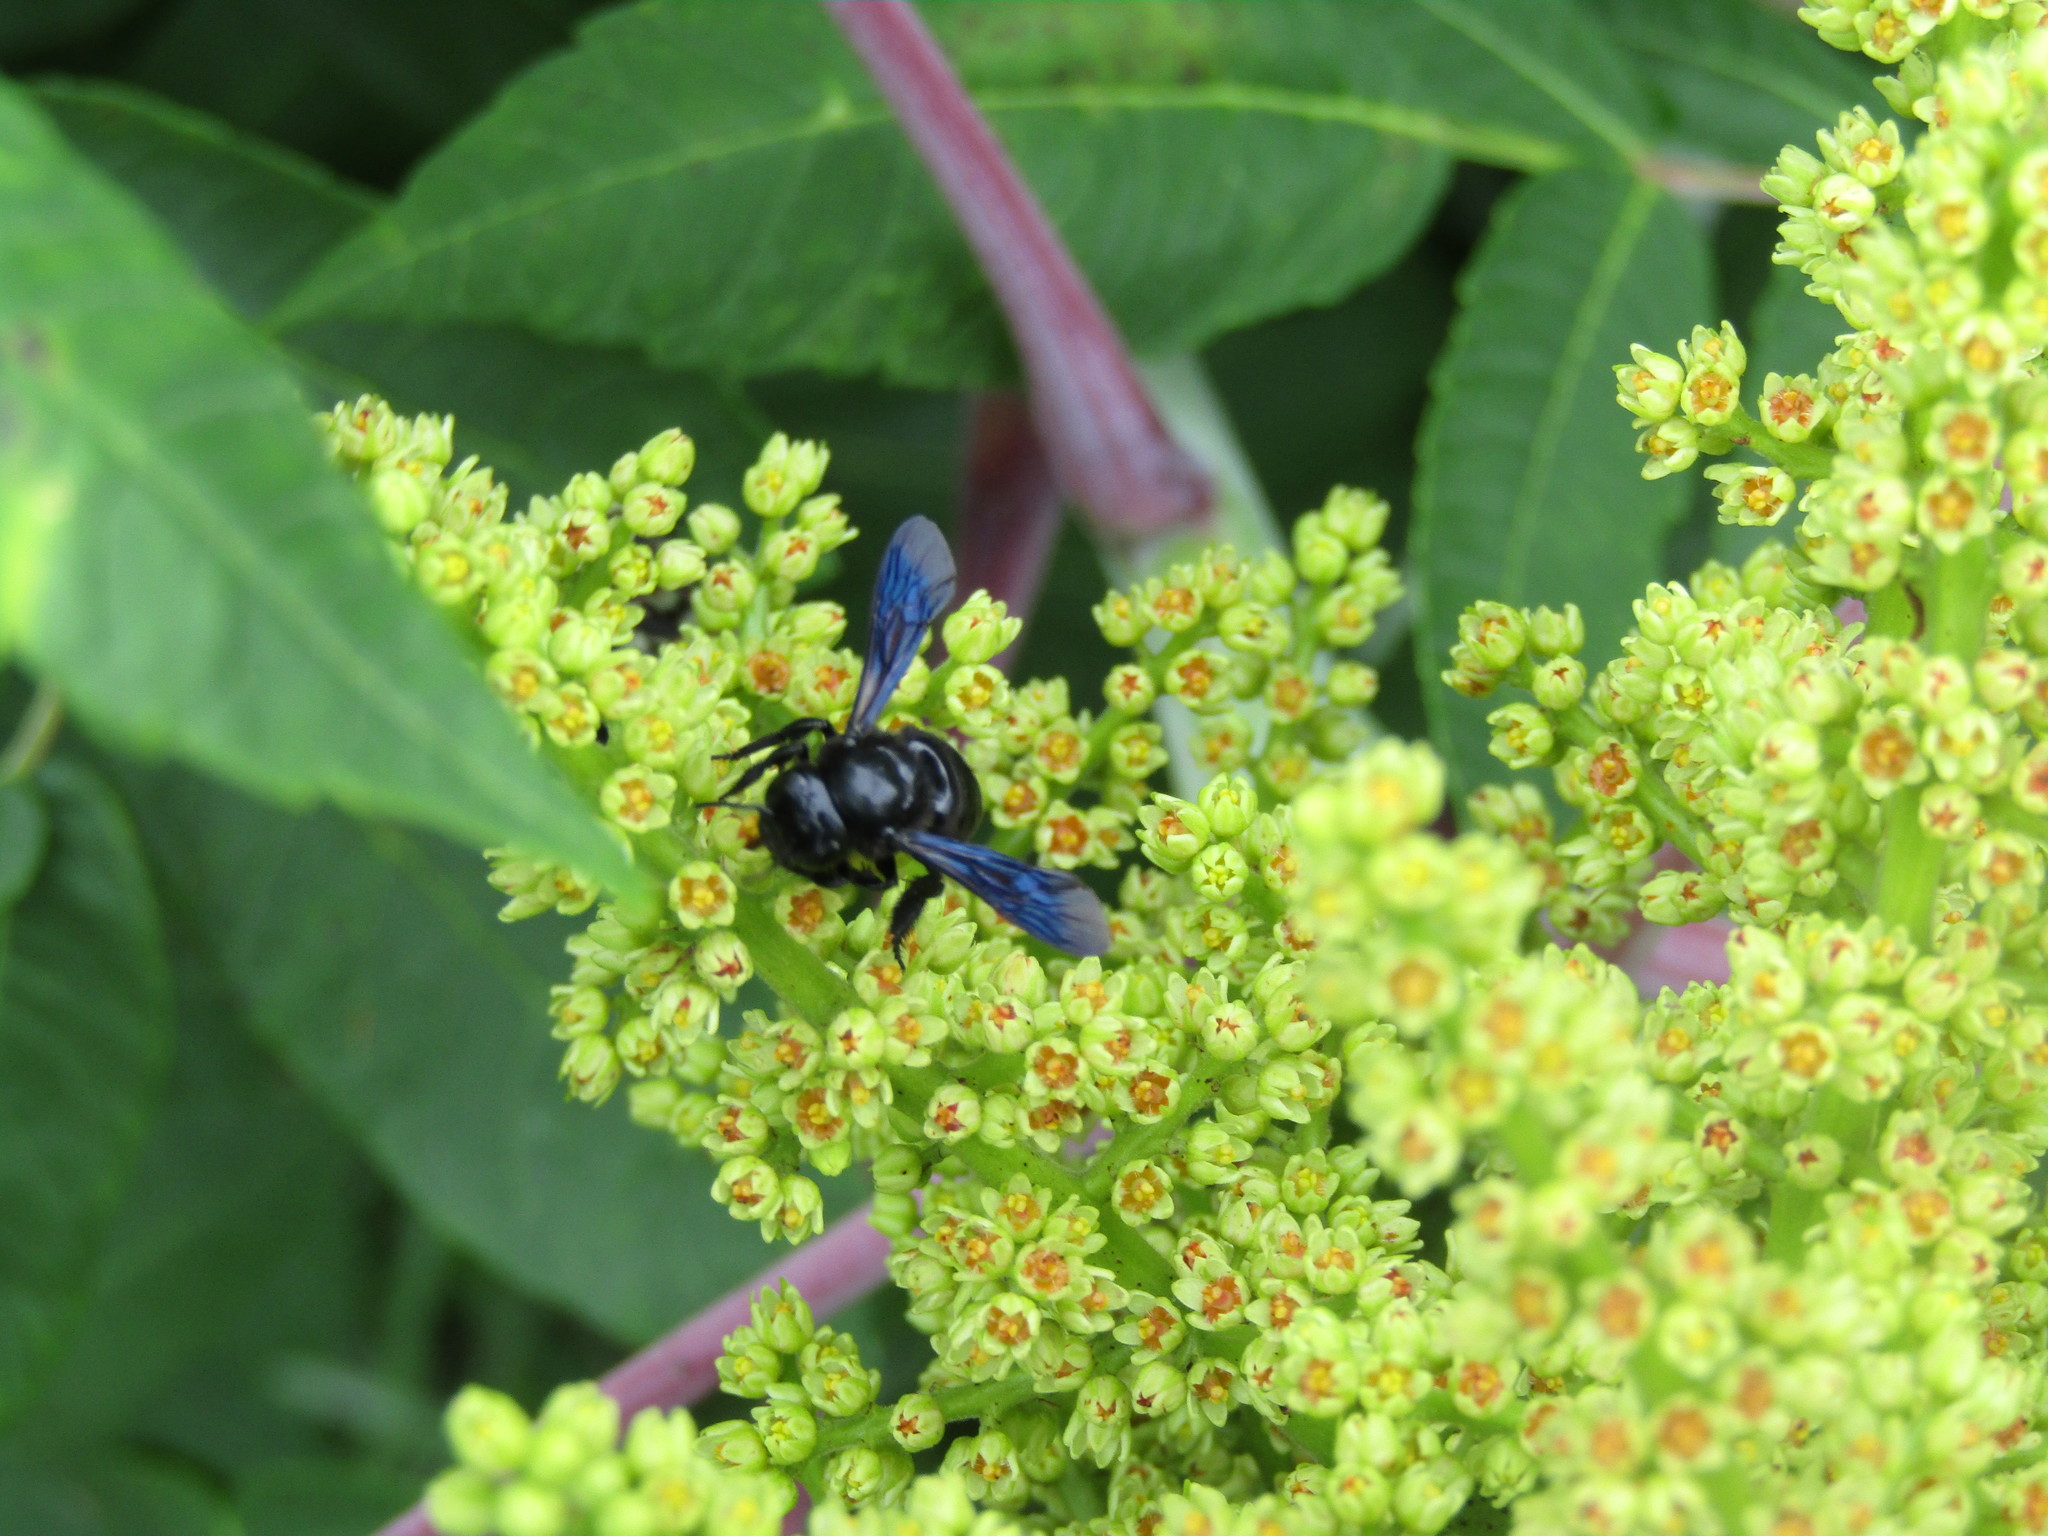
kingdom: Animalia
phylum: Arthropoda
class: Insecta
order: Hymenoptera
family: Megachilidae
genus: Megachile
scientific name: Megachile xylocopoides
